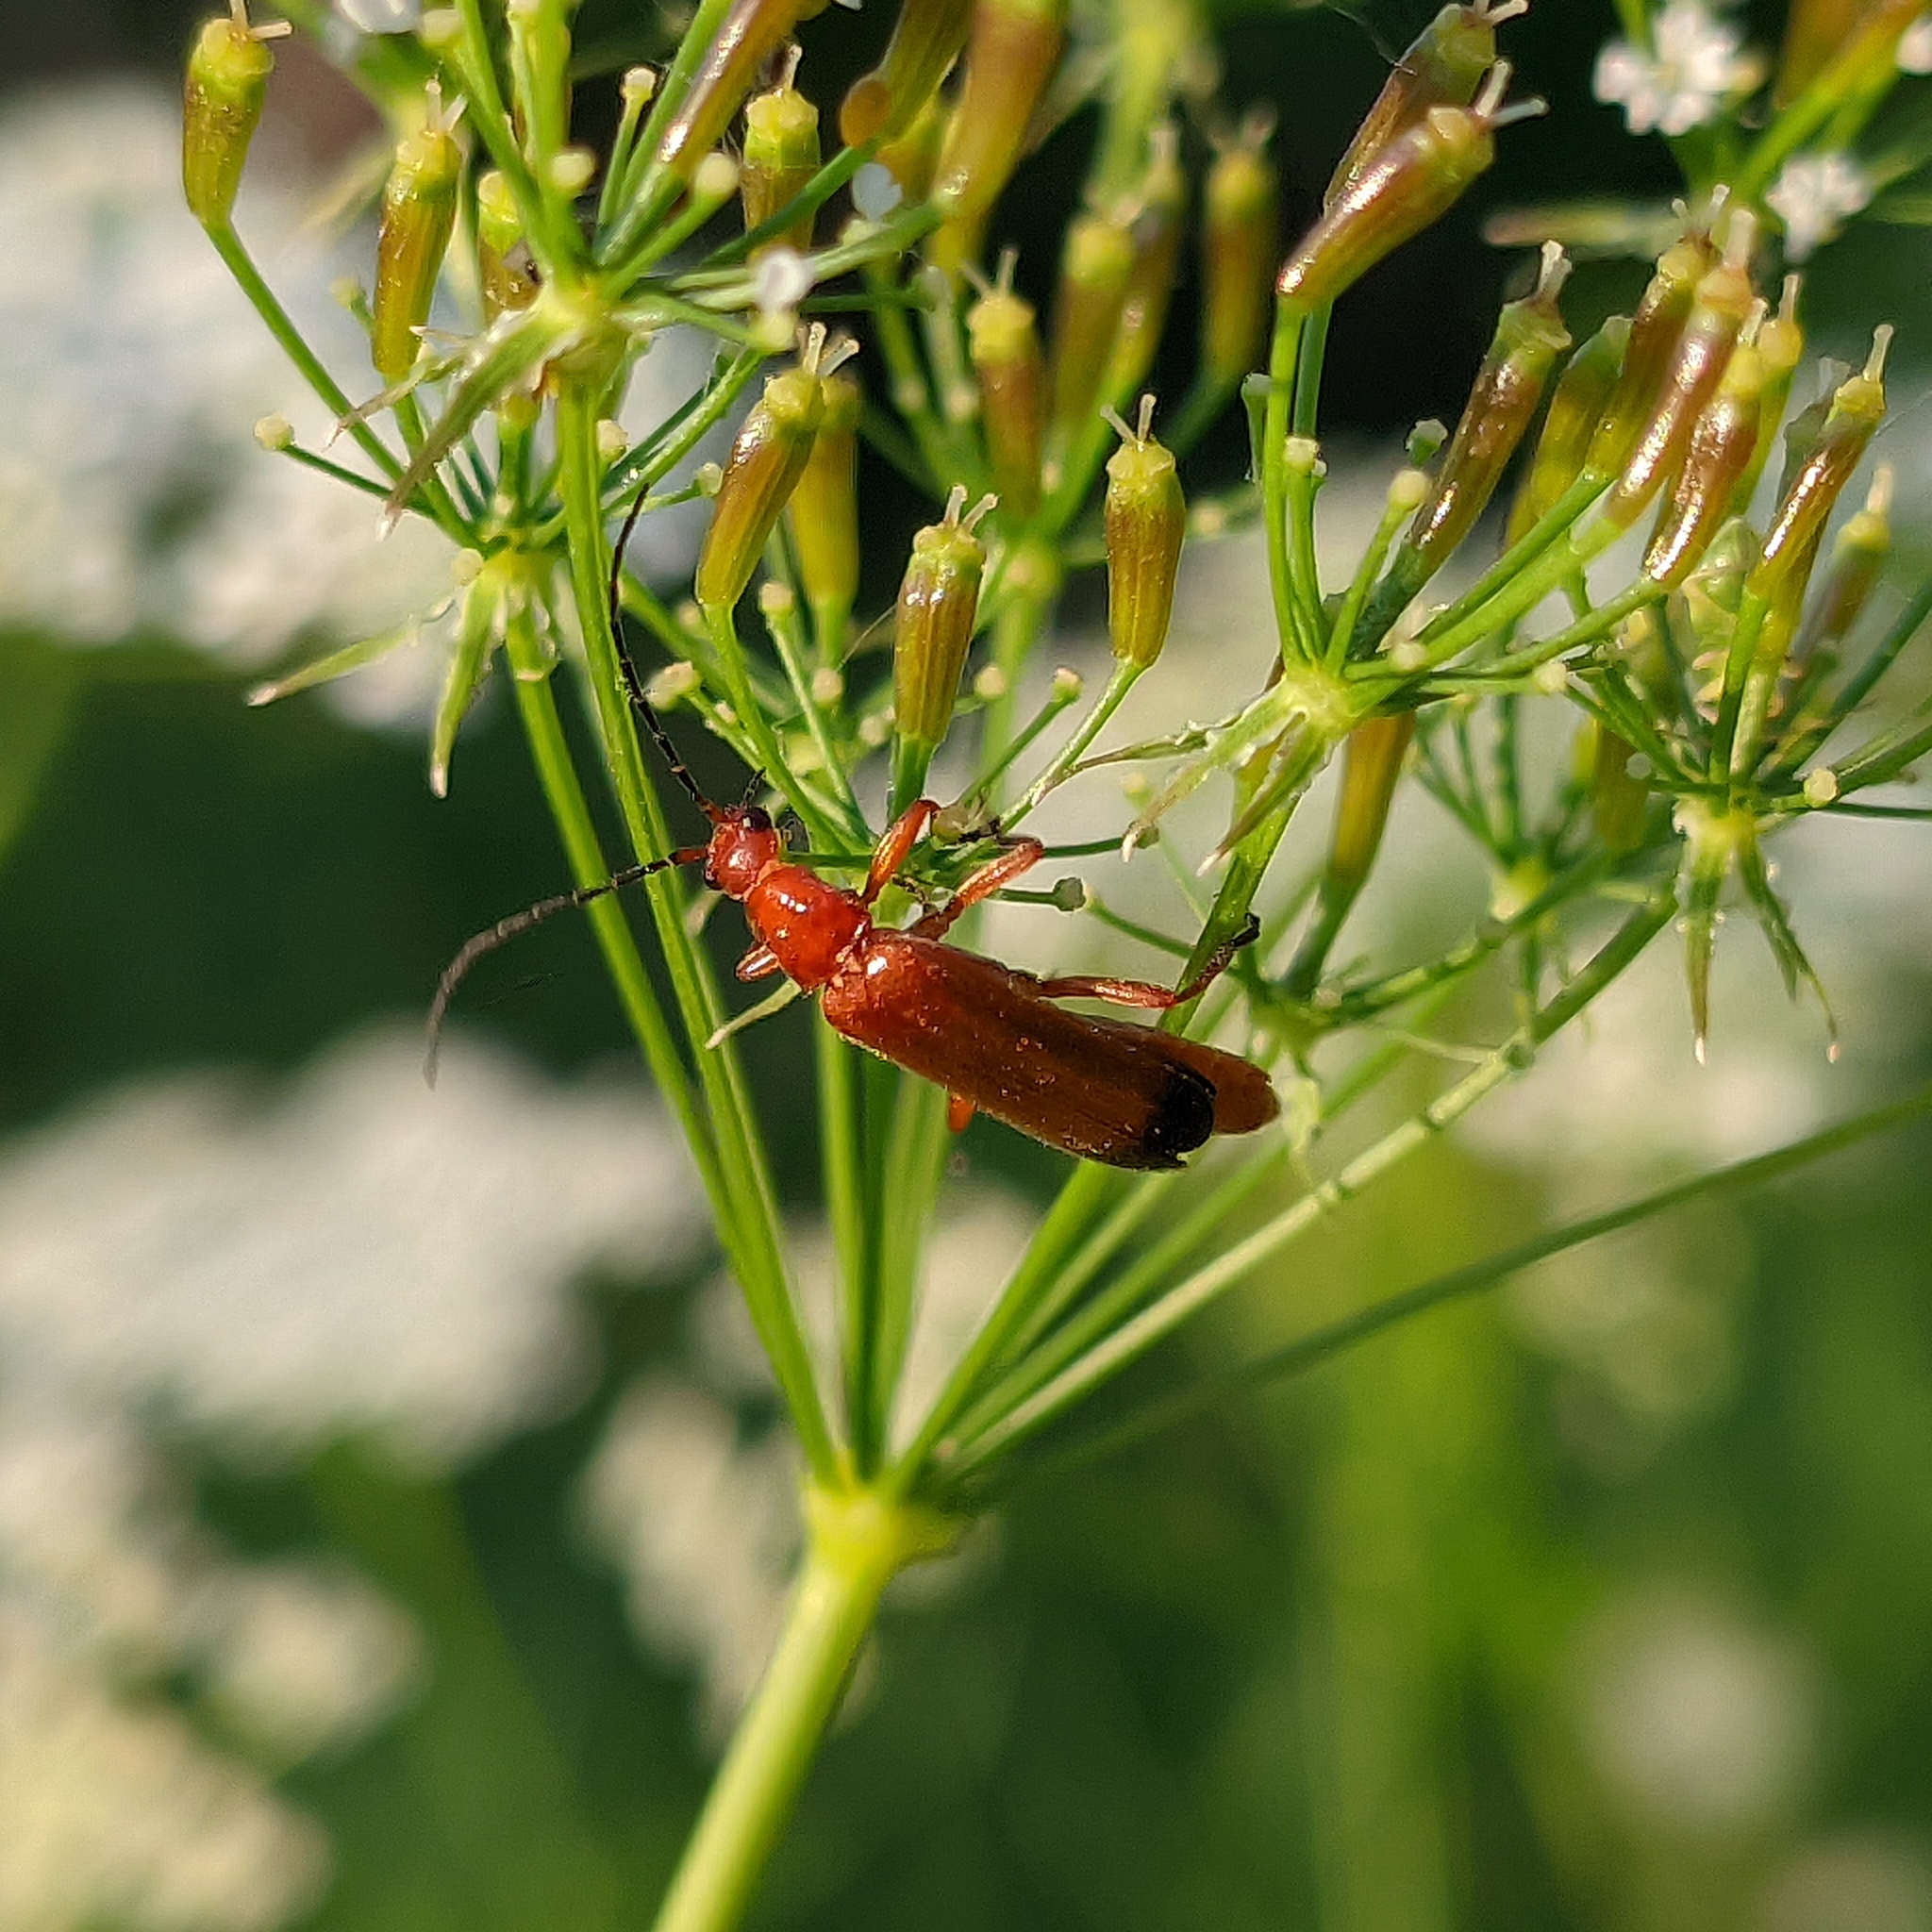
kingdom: Animalia
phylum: Arthropoda
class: Insecta
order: Coleoptera
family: Cantharidae
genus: Rhagonycha
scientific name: Rhagonycha fulva
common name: Common red soldier beetle
